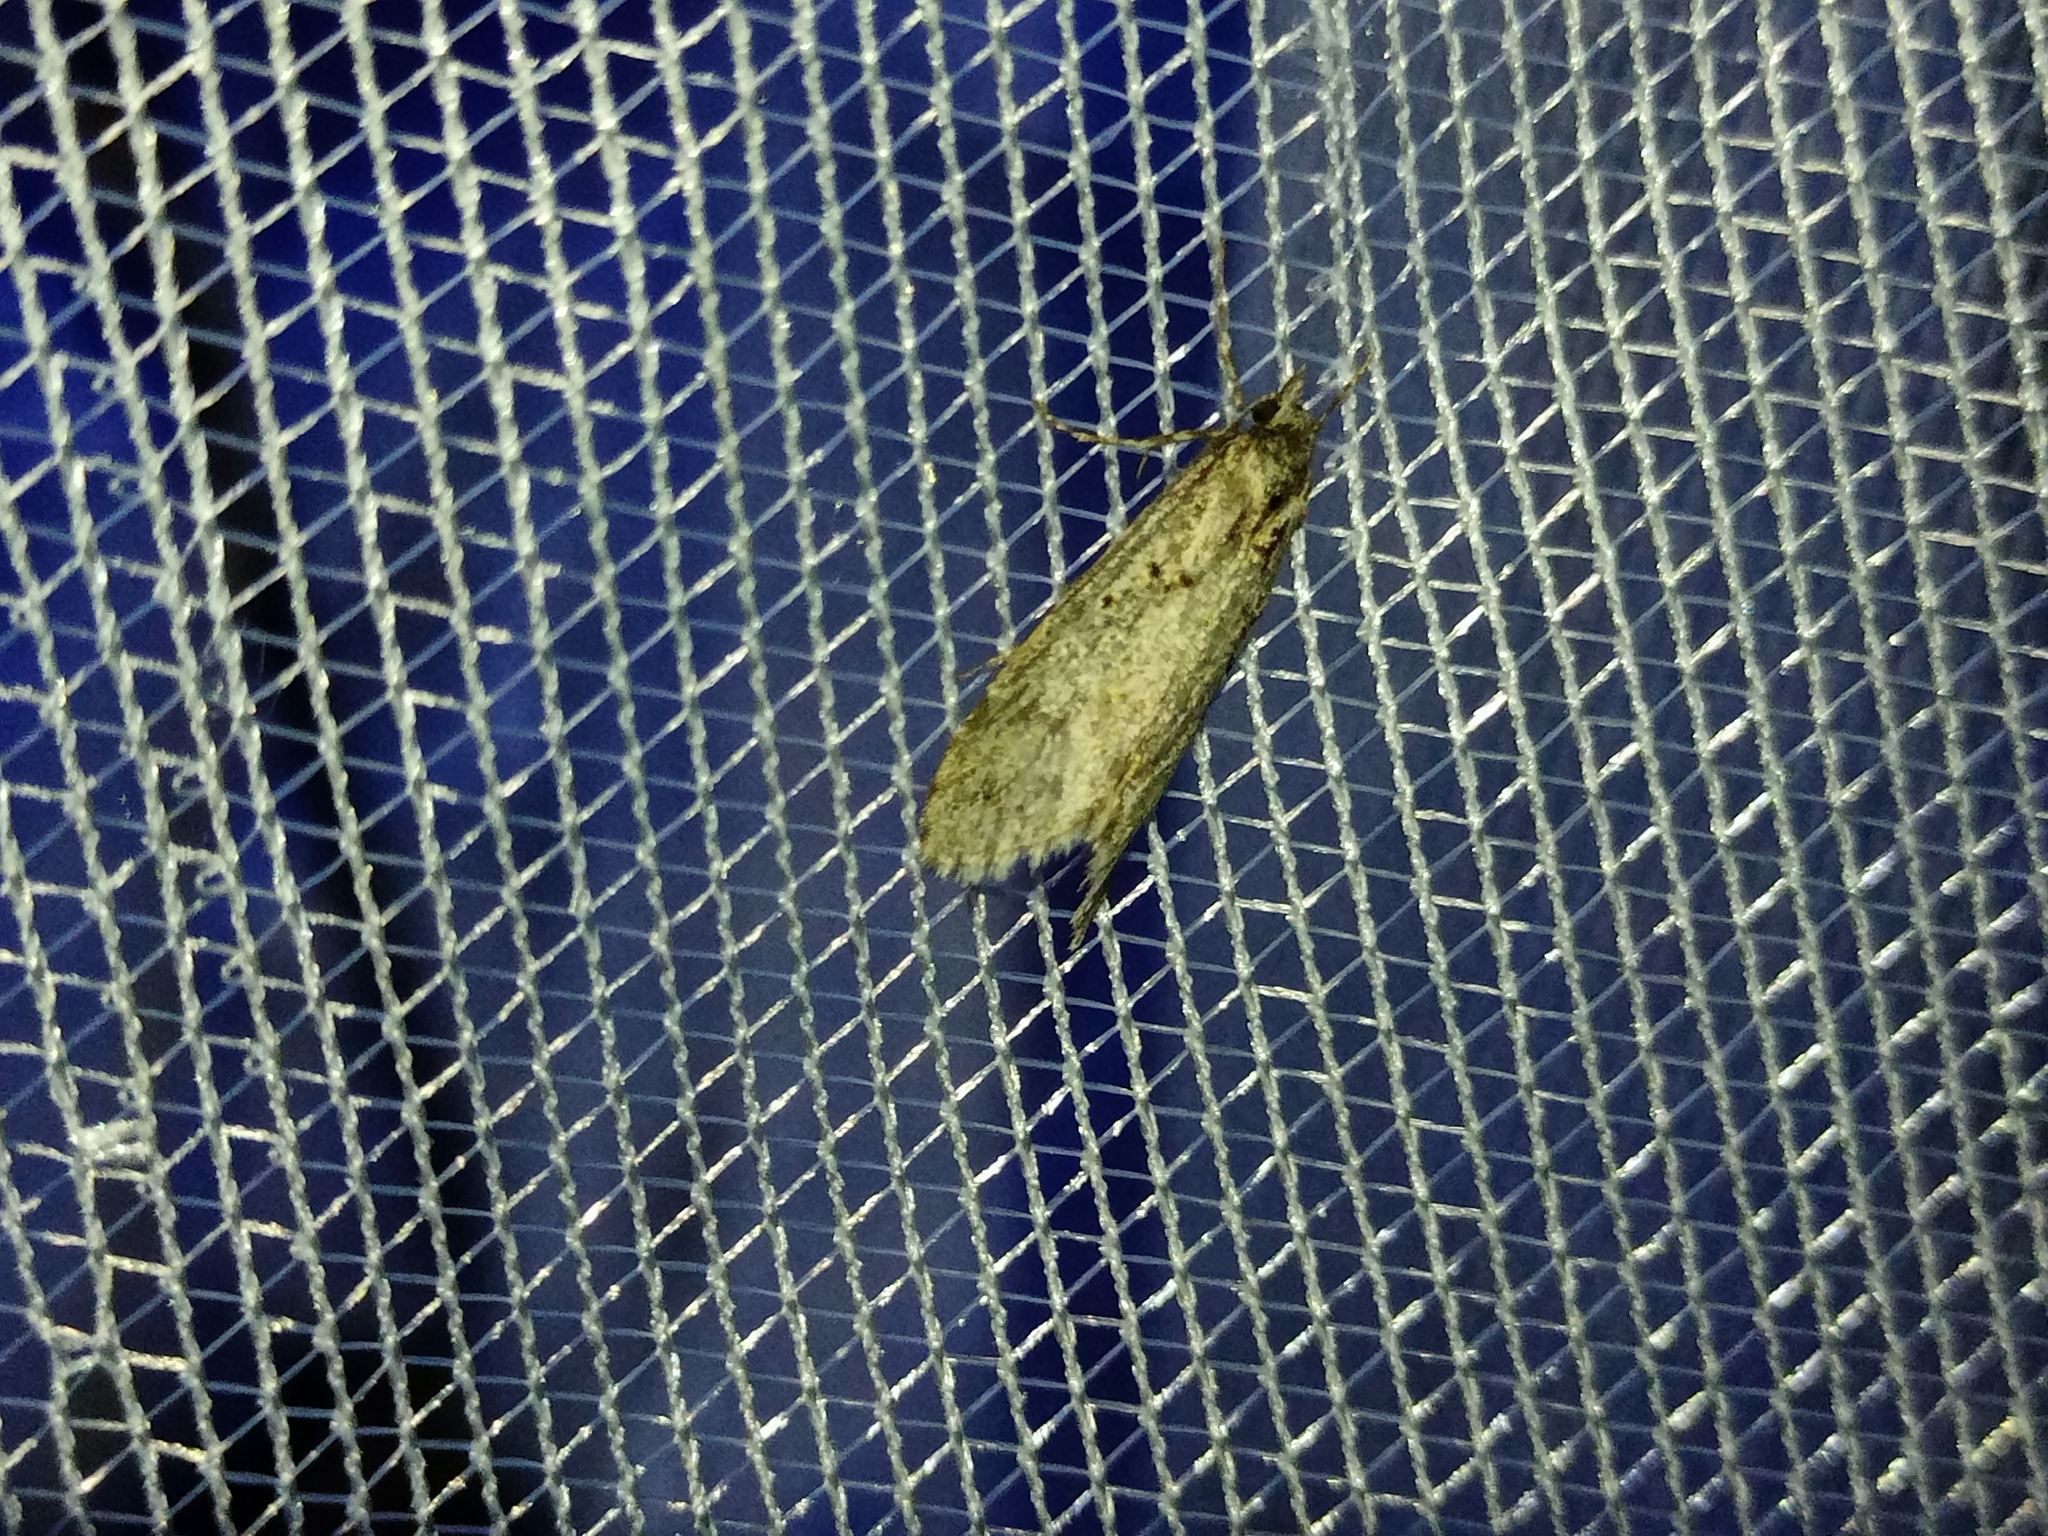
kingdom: Animalia
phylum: Arthropoda
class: Insecta
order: Lepidoptera
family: Lypusidae
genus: Diurnea
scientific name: Diurnea fagella
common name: March tubic
